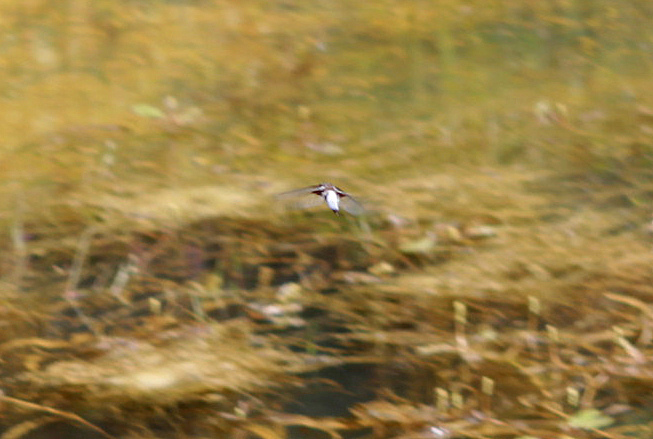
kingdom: Animalia
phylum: Arthropoda
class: Insecta
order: Odonata
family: Libellulidae
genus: Libellula
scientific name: Libellula depressa
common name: Broad-bodied chaser
